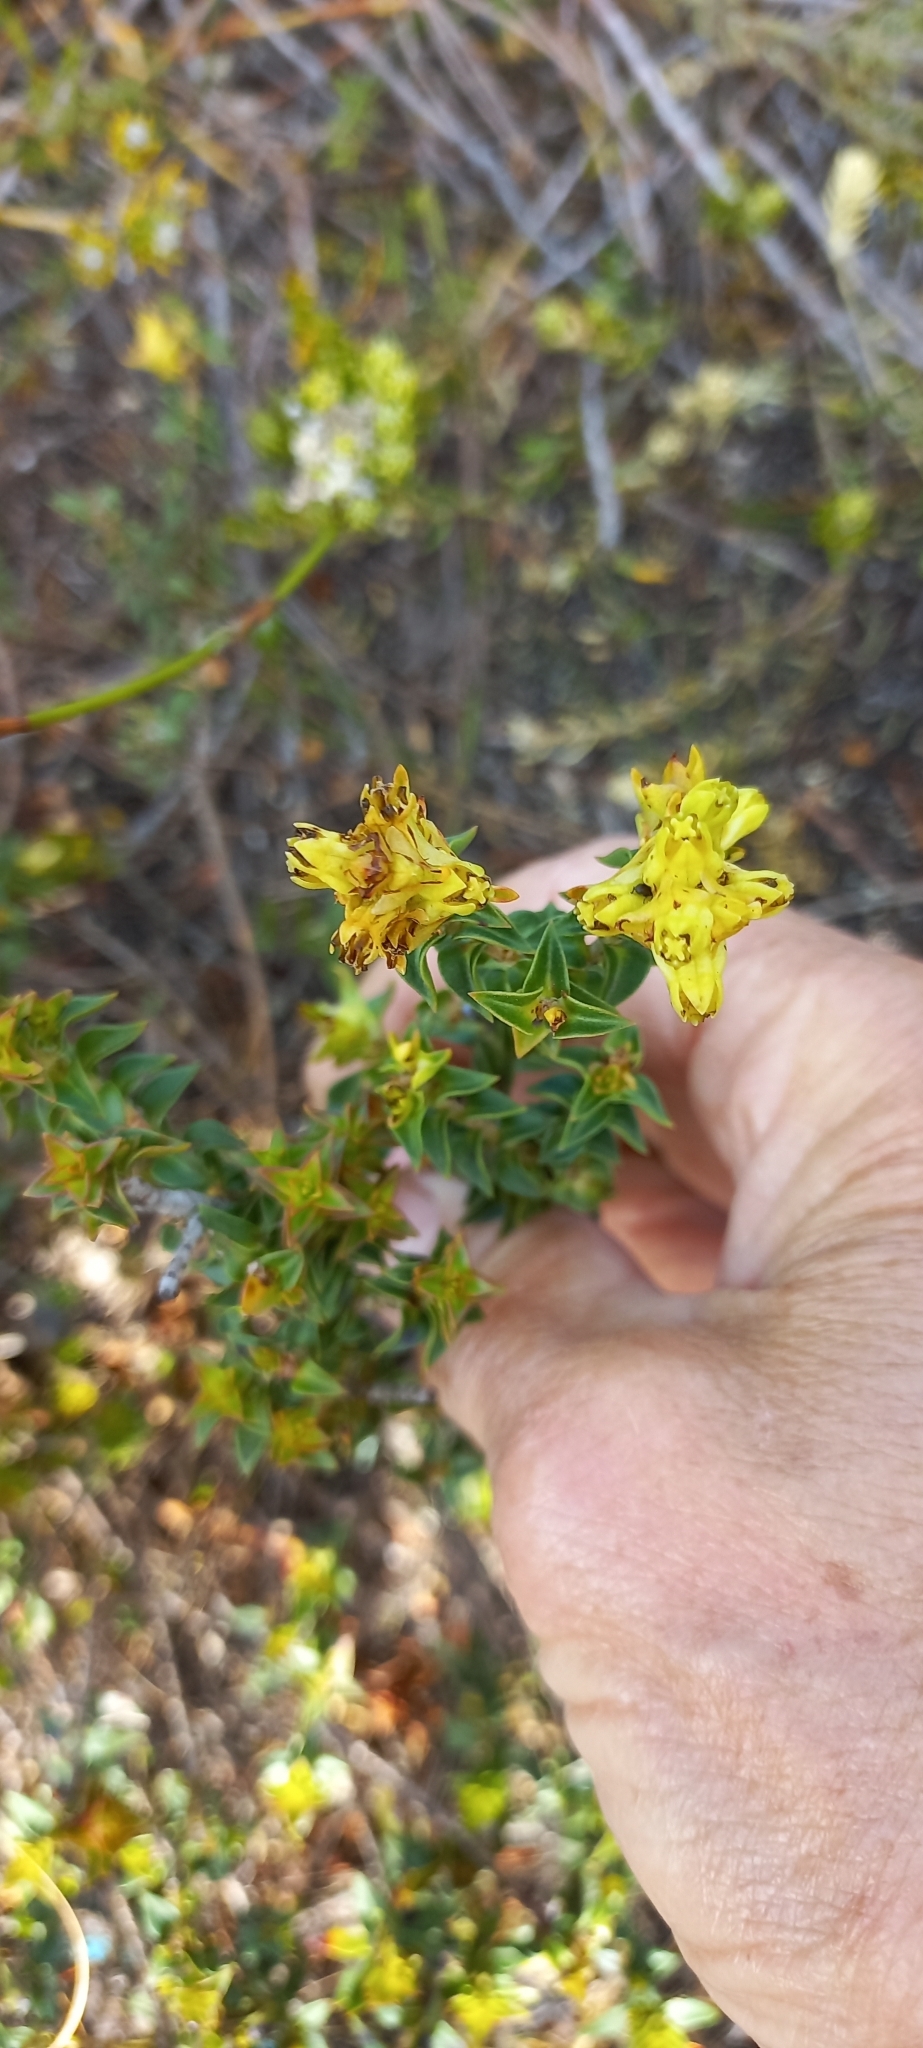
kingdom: Plantae
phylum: Tracheophyta
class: Magnoliopsida
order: Myrtales
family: Penaeaceae
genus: Penaea
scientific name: Penaea mucronata
